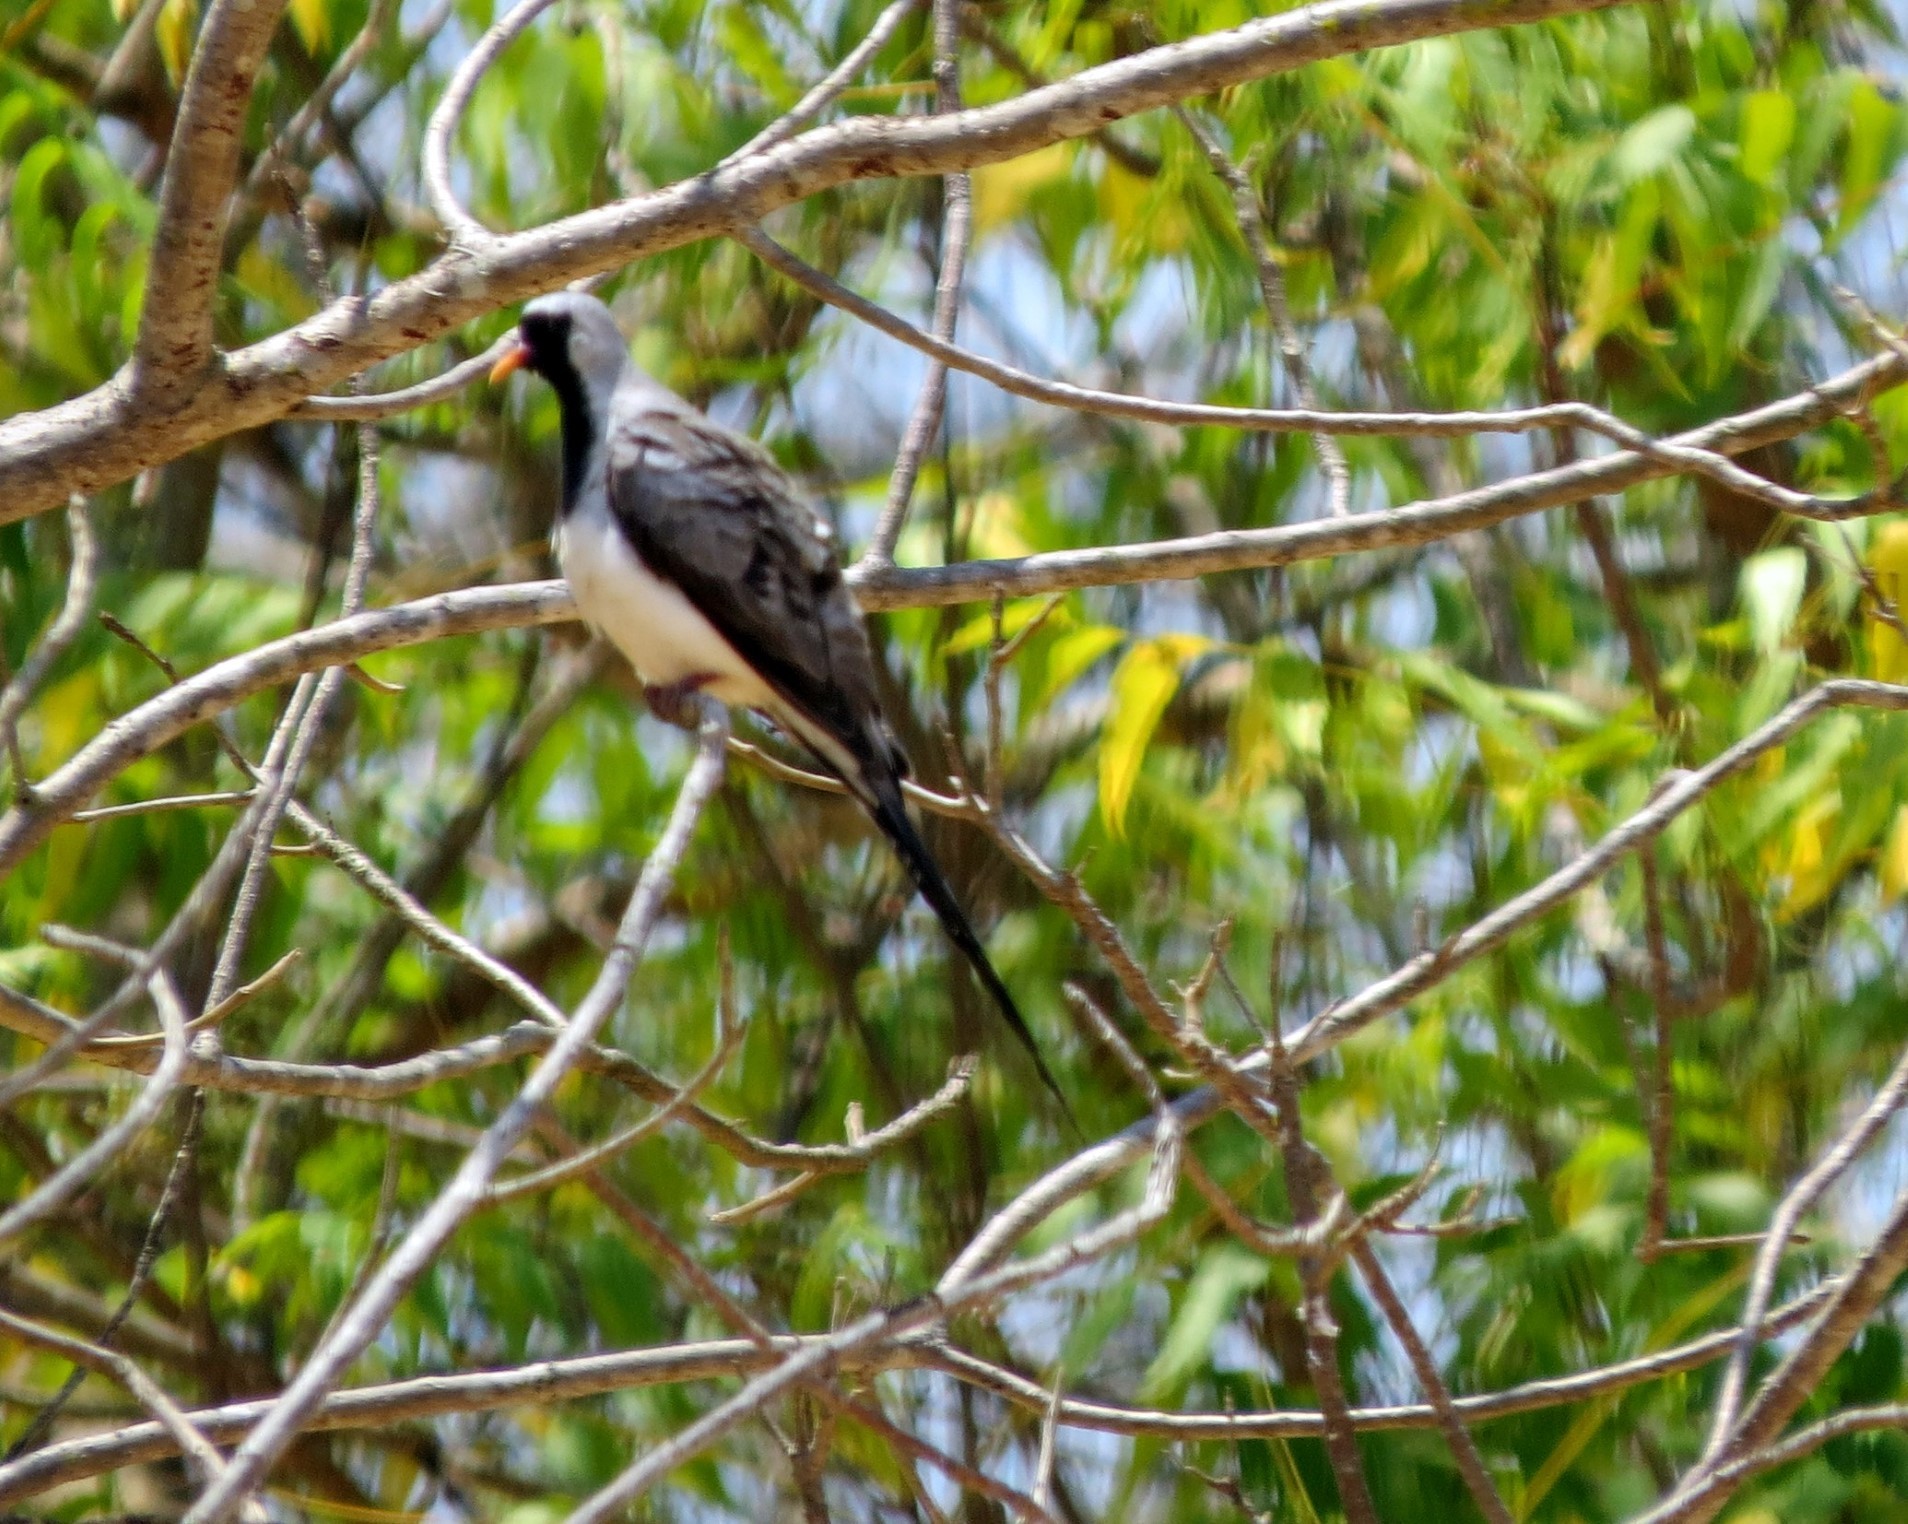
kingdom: Animalia
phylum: Chordata
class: Aves
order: Columbiformes
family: Columbidae
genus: Oena
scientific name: Oena capensis
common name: Namaqua dove
